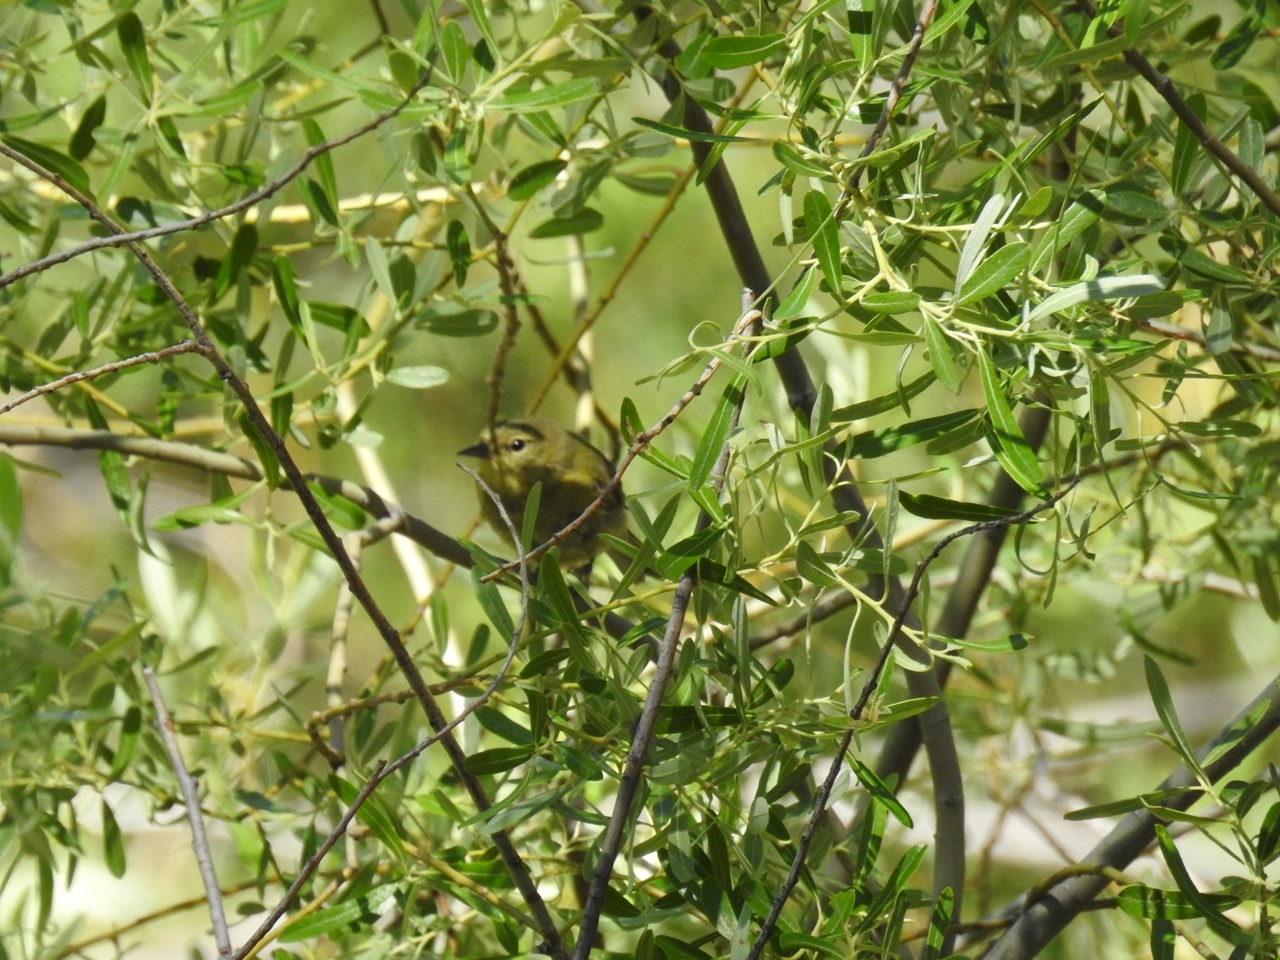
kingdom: Animalia
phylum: Chordata
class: Aves
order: Passeriformes
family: Parulidae
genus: Leiothlypis
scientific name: Leiothlypis celata
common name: Orange-crowned warbler
